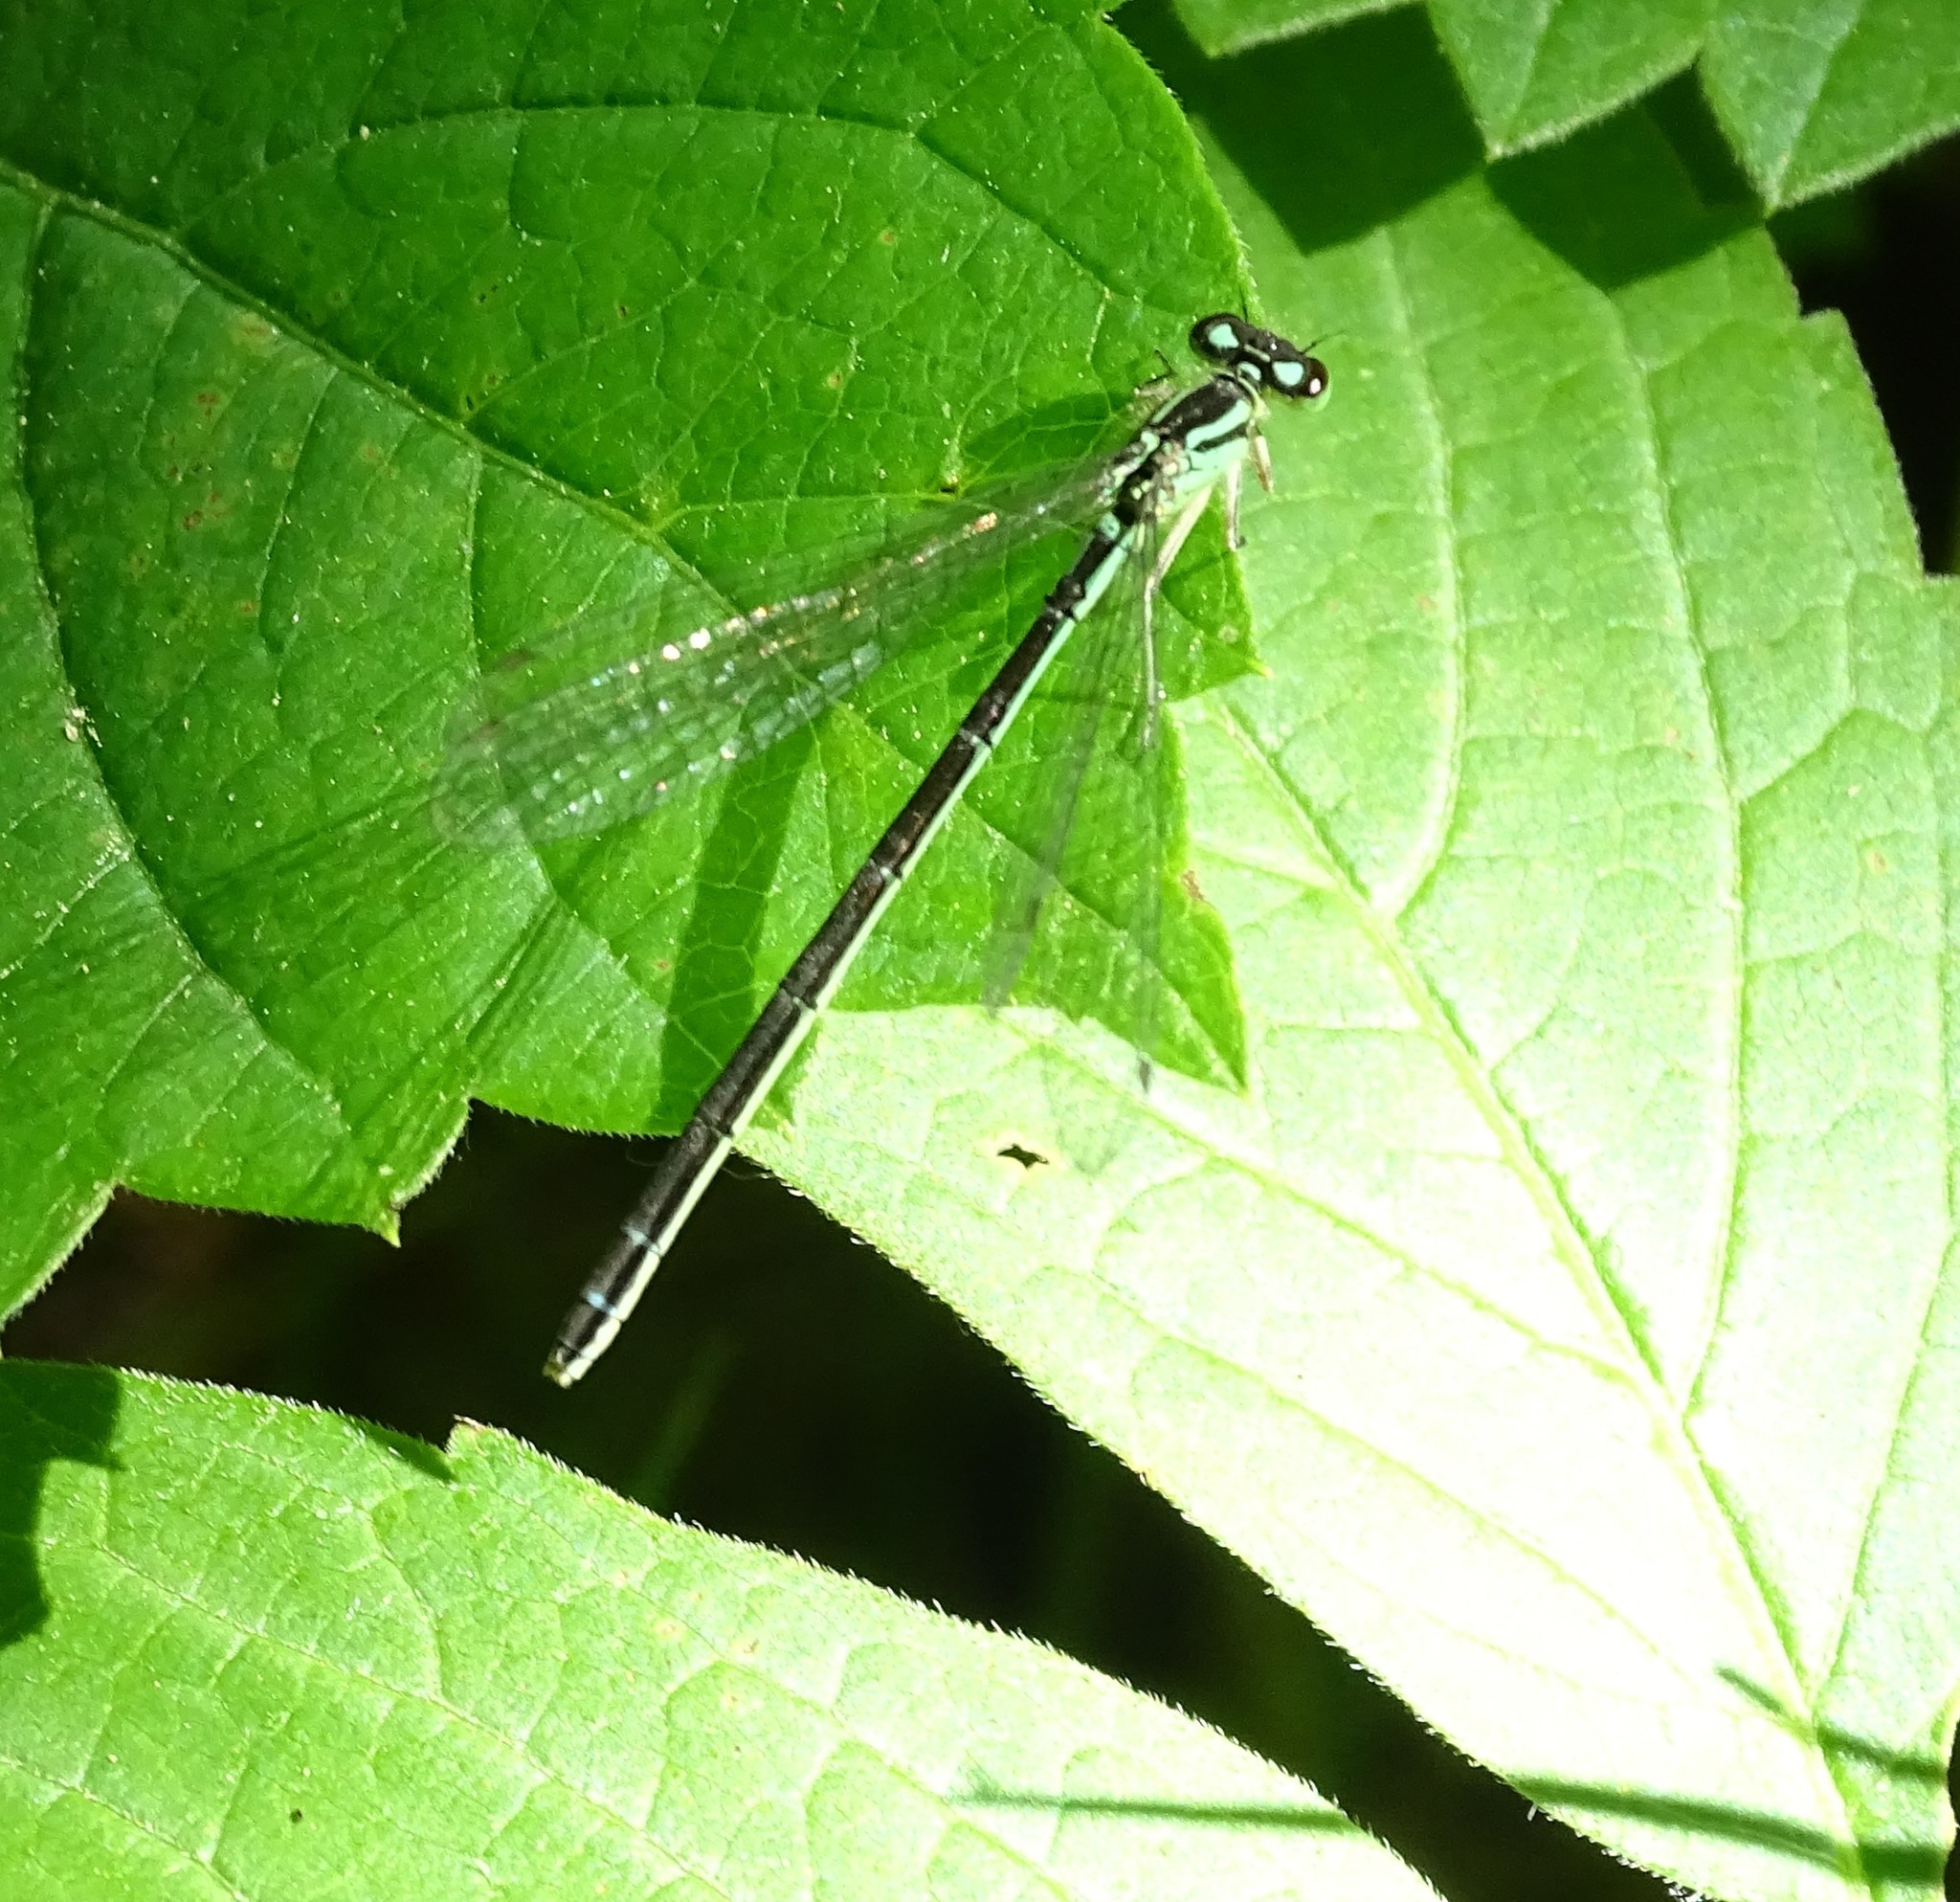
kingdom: Animalia
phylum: Arthropoda
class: Insecta
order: Odonata
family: Coenagrionidae
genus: Coenagrion
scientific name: Coenagrion resolutum
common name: Taiga bluet
